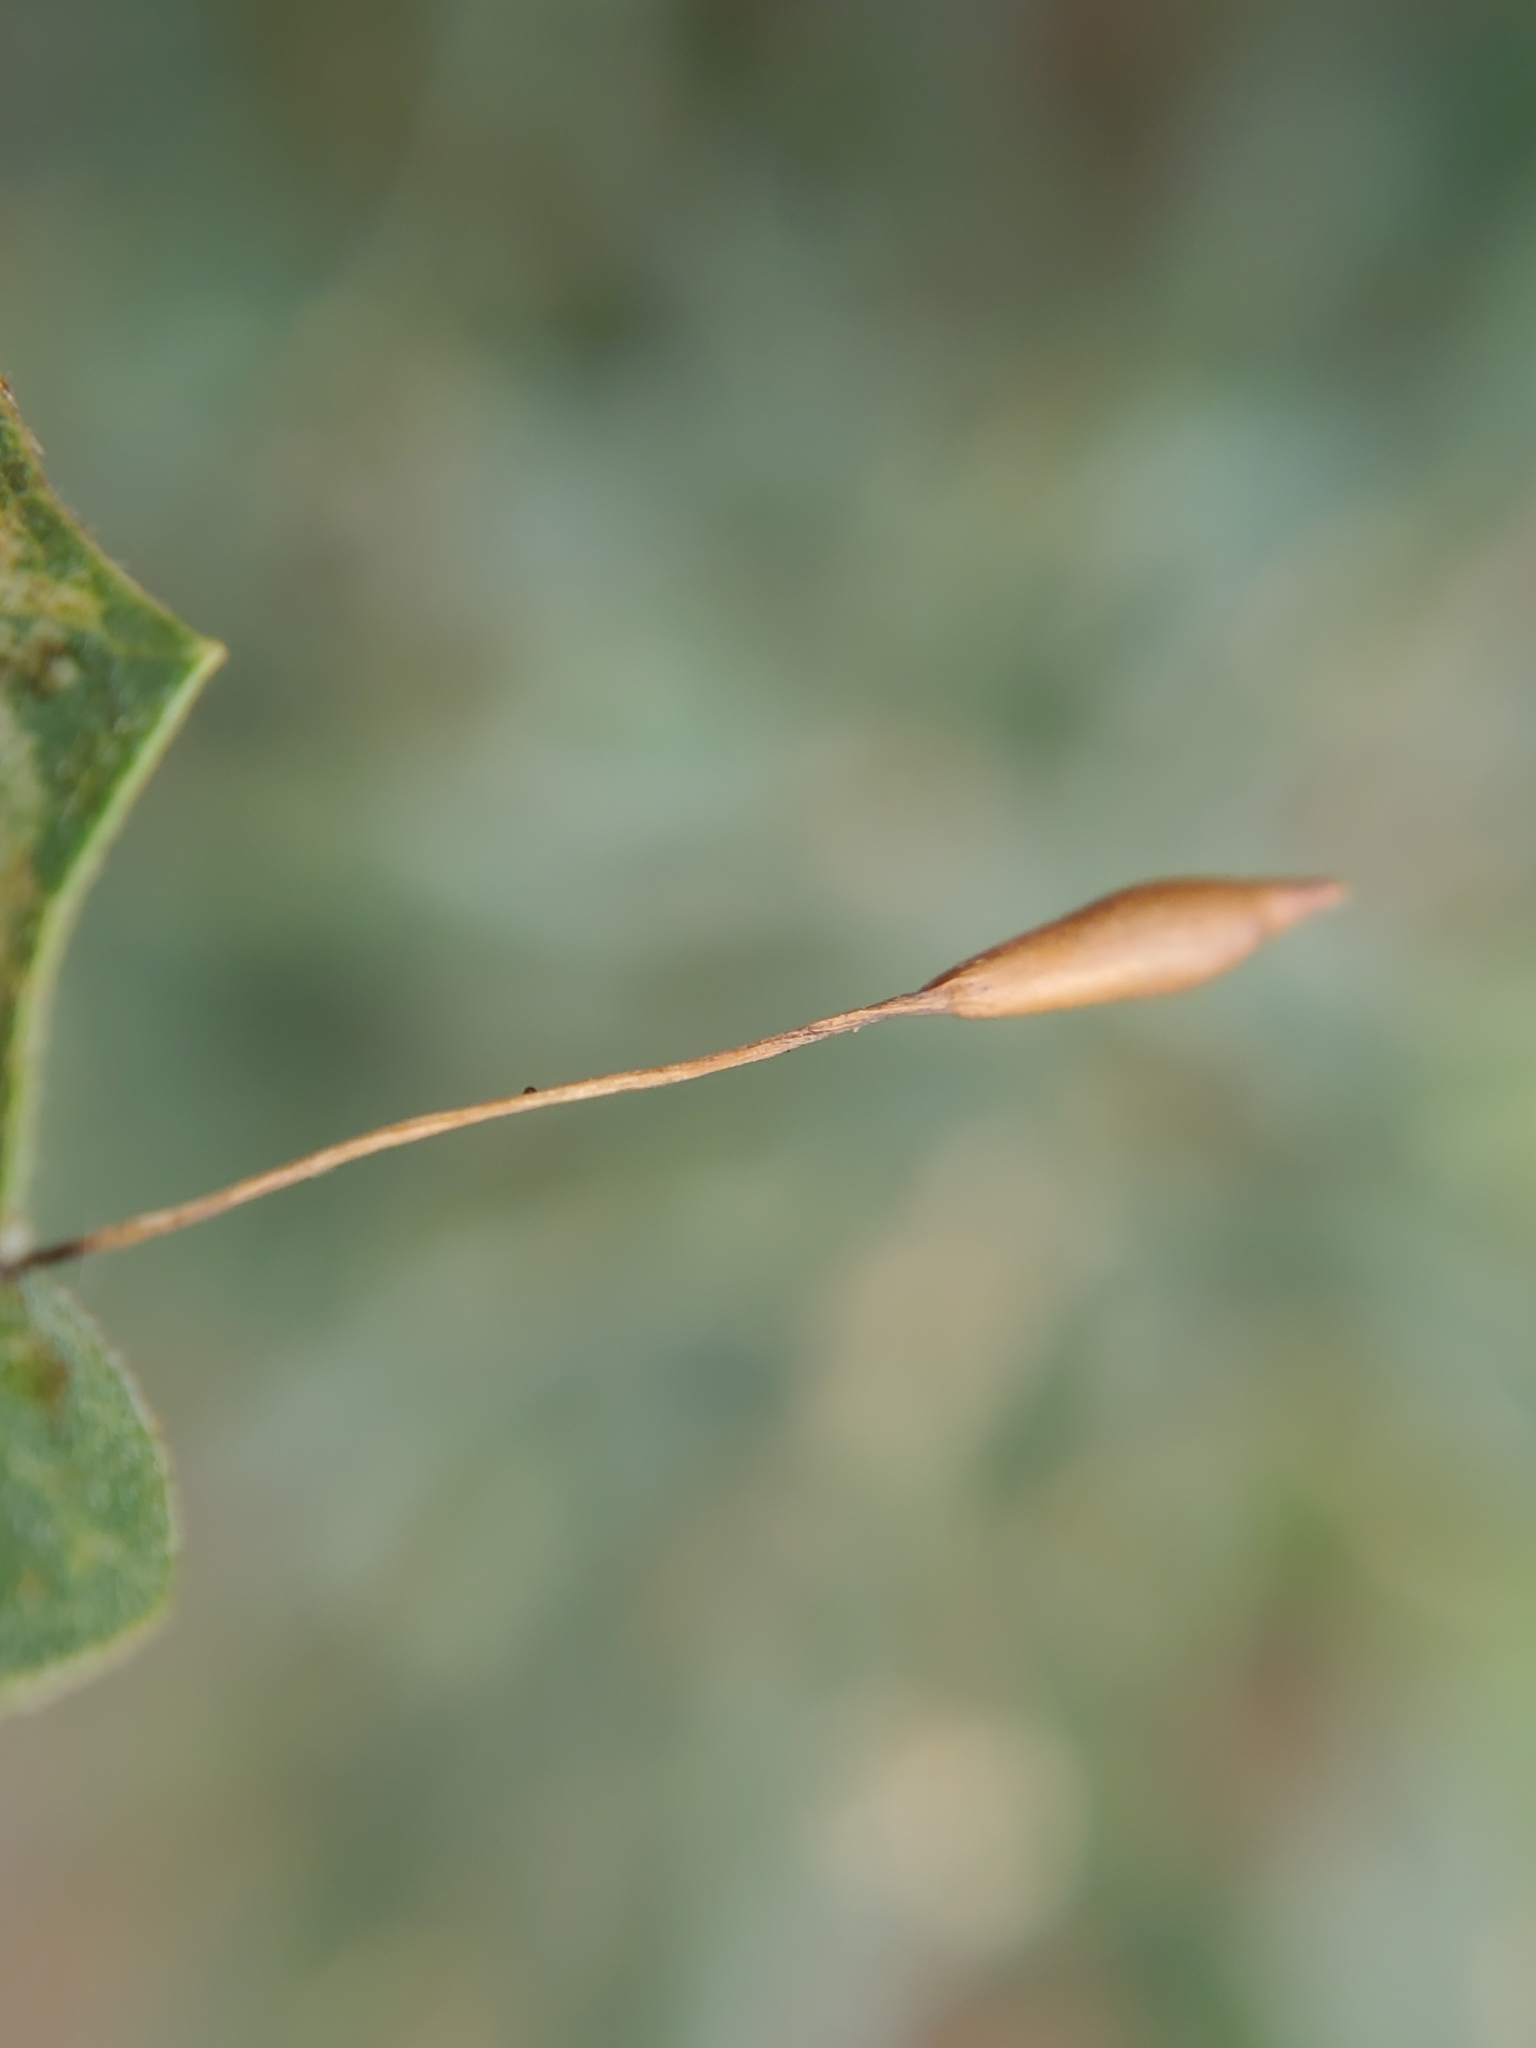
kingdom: Animalia
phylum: Arthropoda
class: Insecta
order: Hymenoptera
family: Cynipidae
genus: Andricus
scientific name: Andricus
